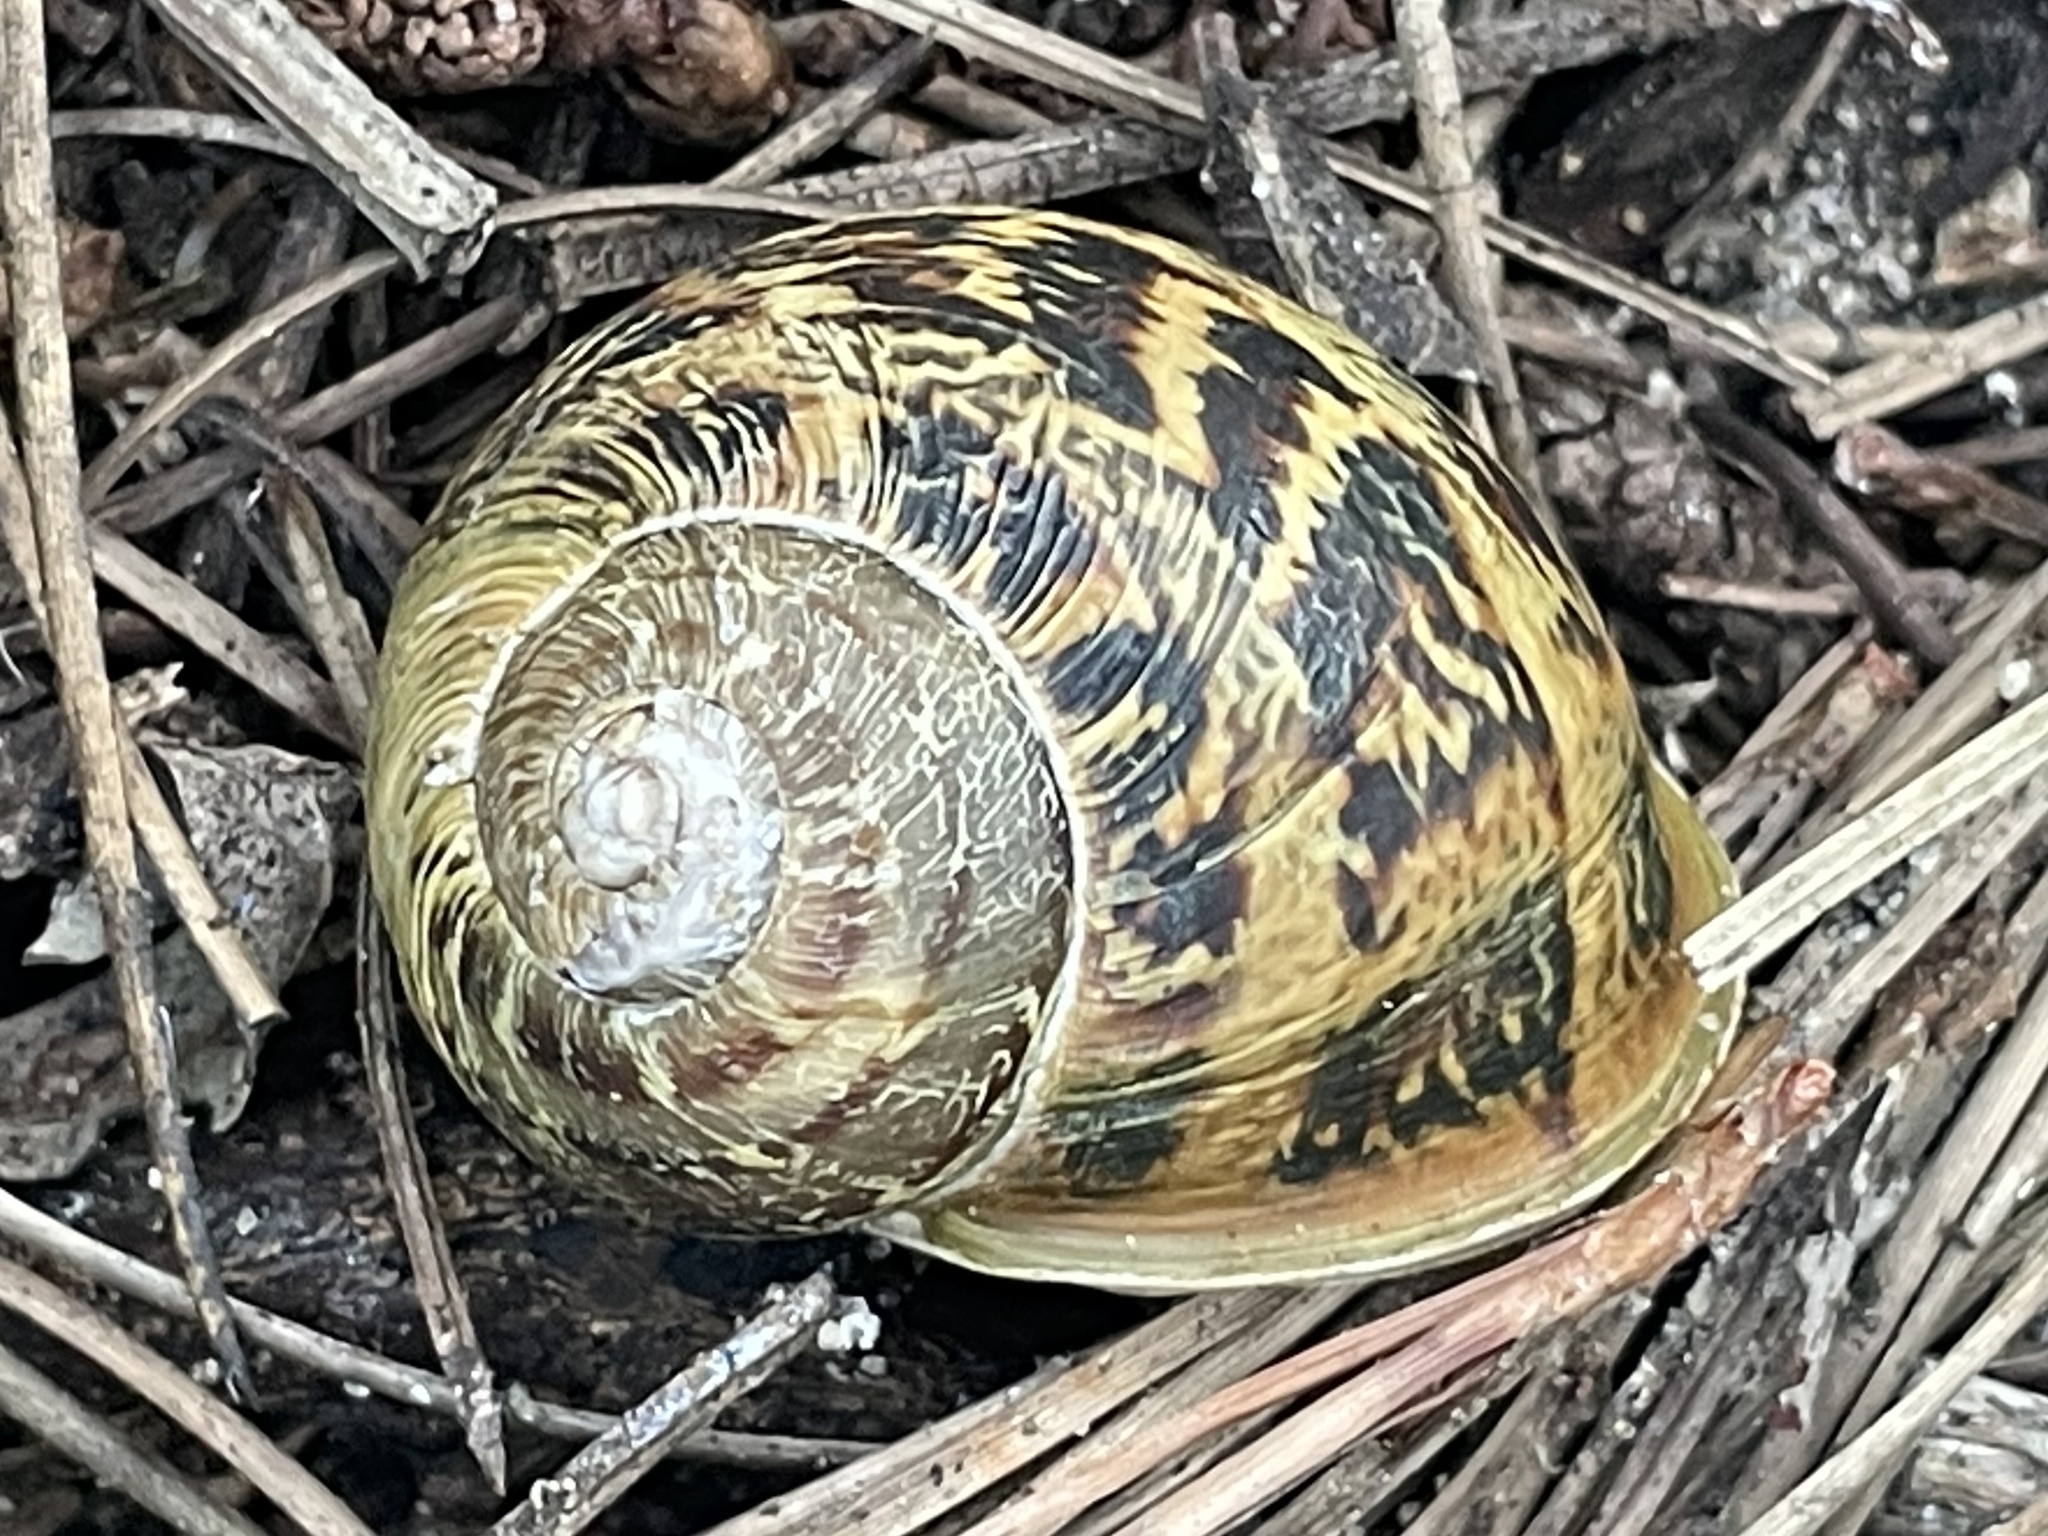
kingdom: Animalia
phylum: Mollusca
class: Gastropoda
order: Stylommatophora
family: Helicidae
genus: Cornu
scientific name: Cornu aspersum
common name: Brown garden snail
